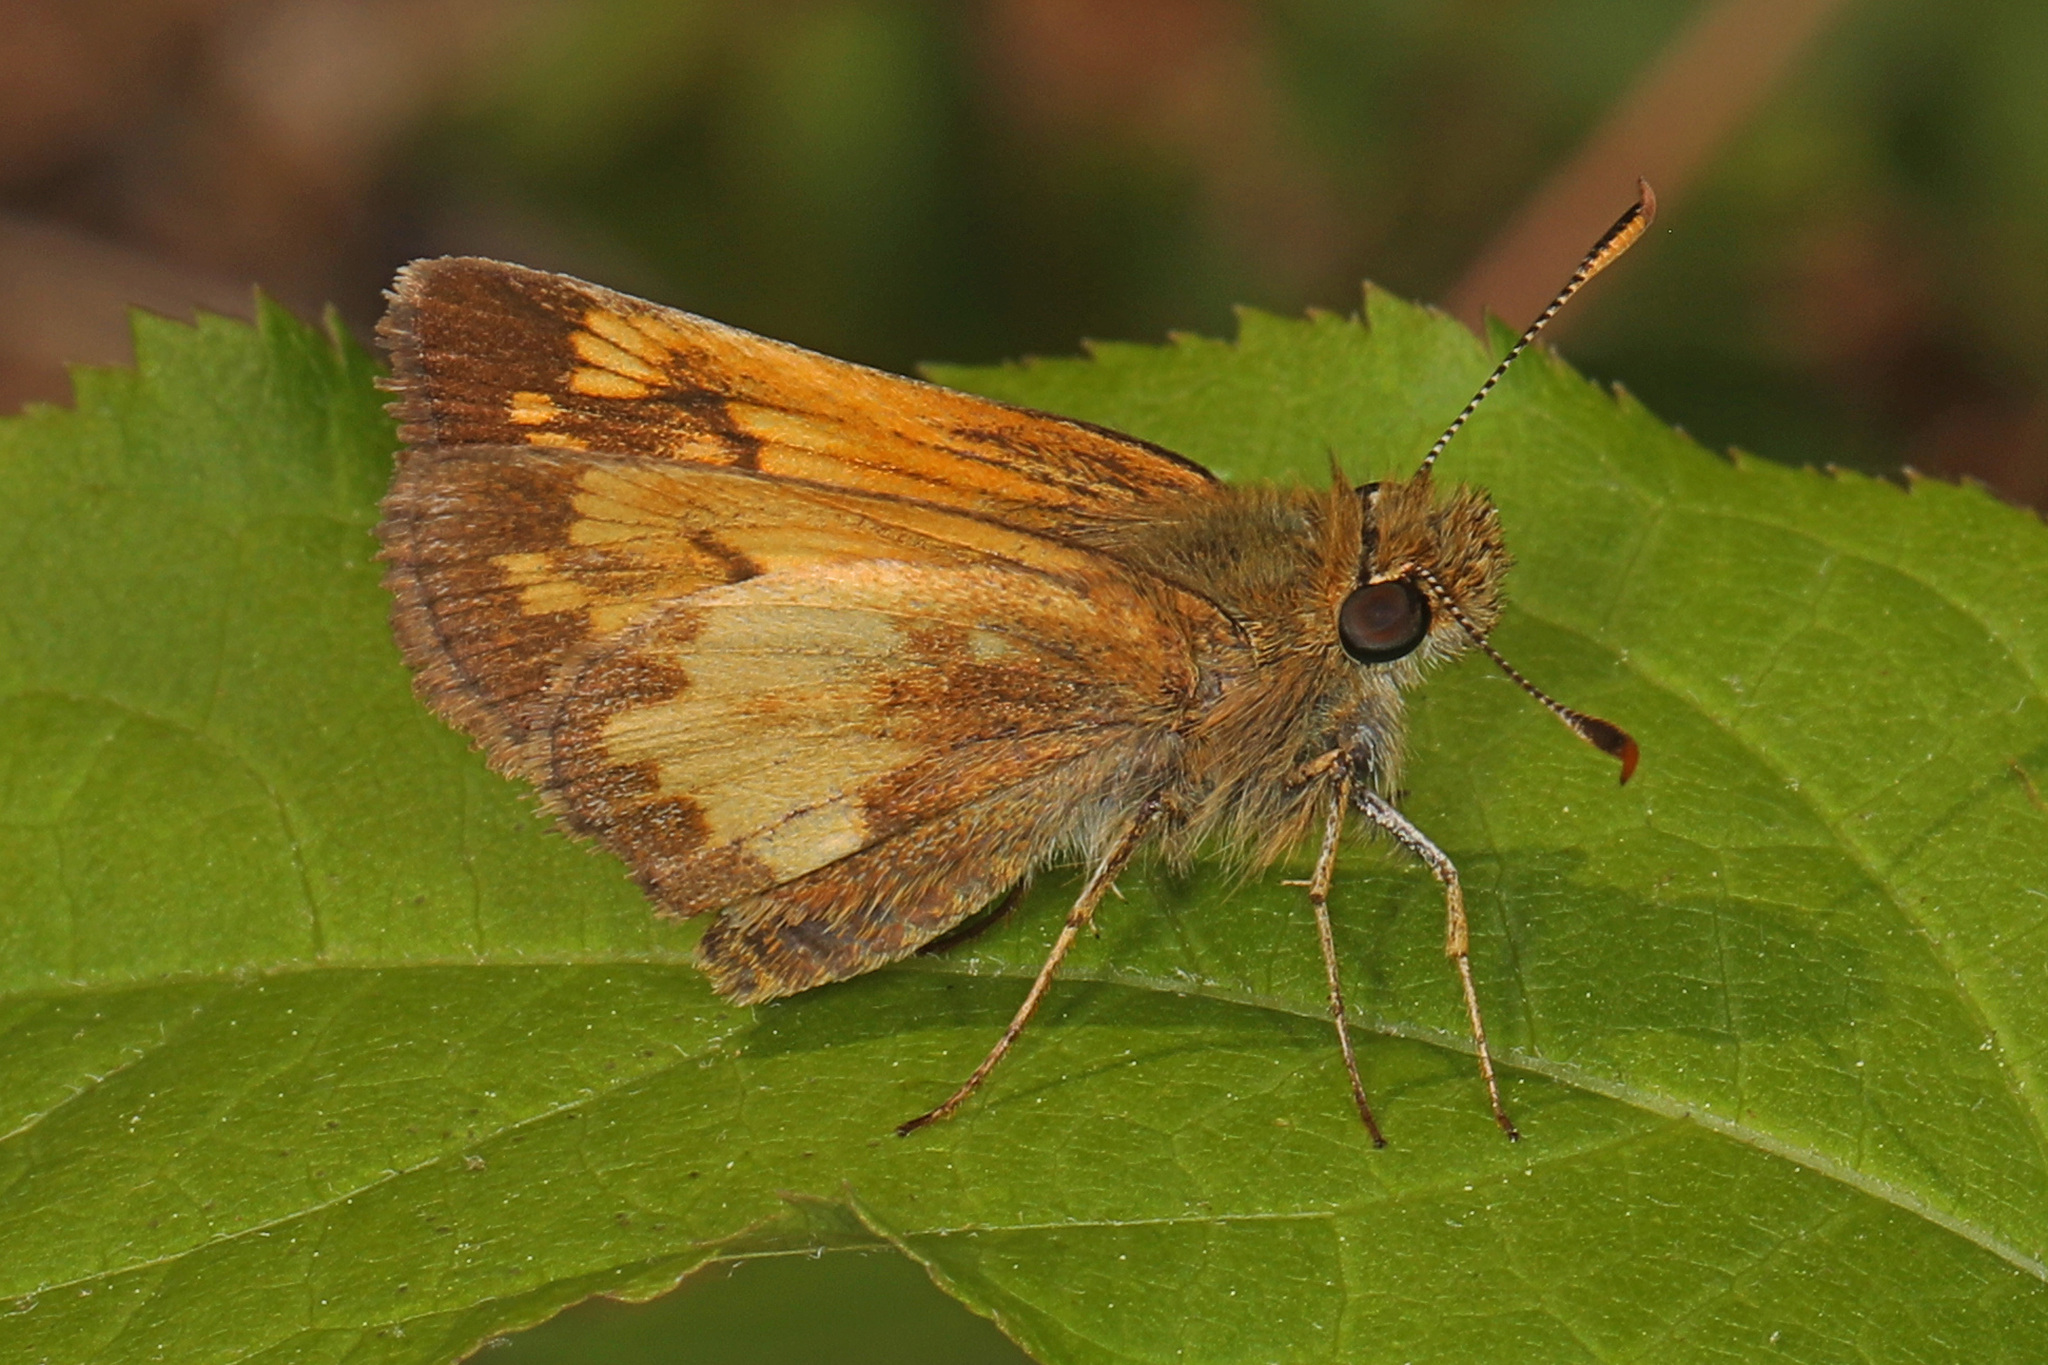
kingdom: Animalia
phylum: Arthropoda
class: Insecta
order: Lepidoptera
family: Hesperiidae
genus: Lon
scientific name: Lon hobomok
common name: Hobomok skipper
